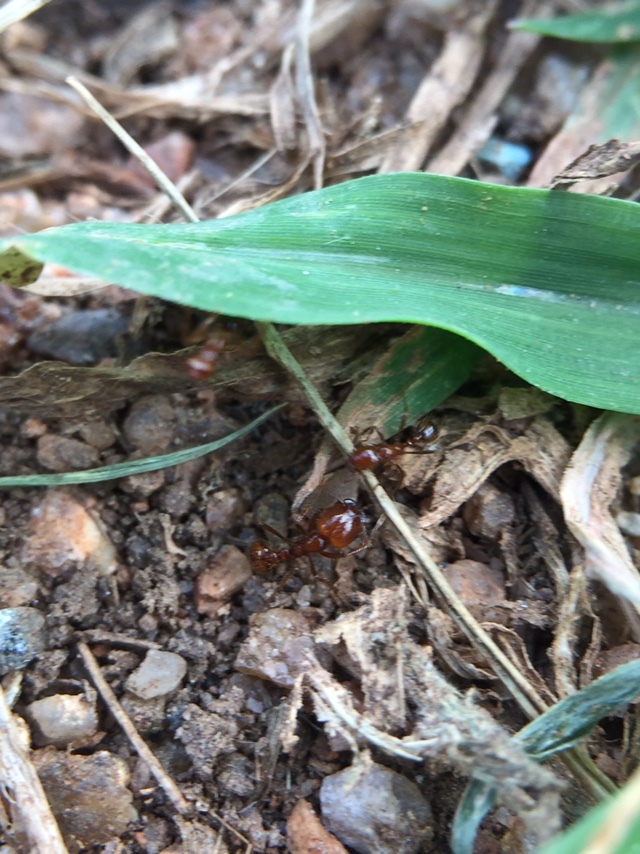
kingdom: Animalia
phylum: Arthropoda
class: Insecta
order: Hymenoptera
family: Formicidae
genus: Solenopsis
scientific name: Solenopsis geminata
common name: Tropical fire ant
